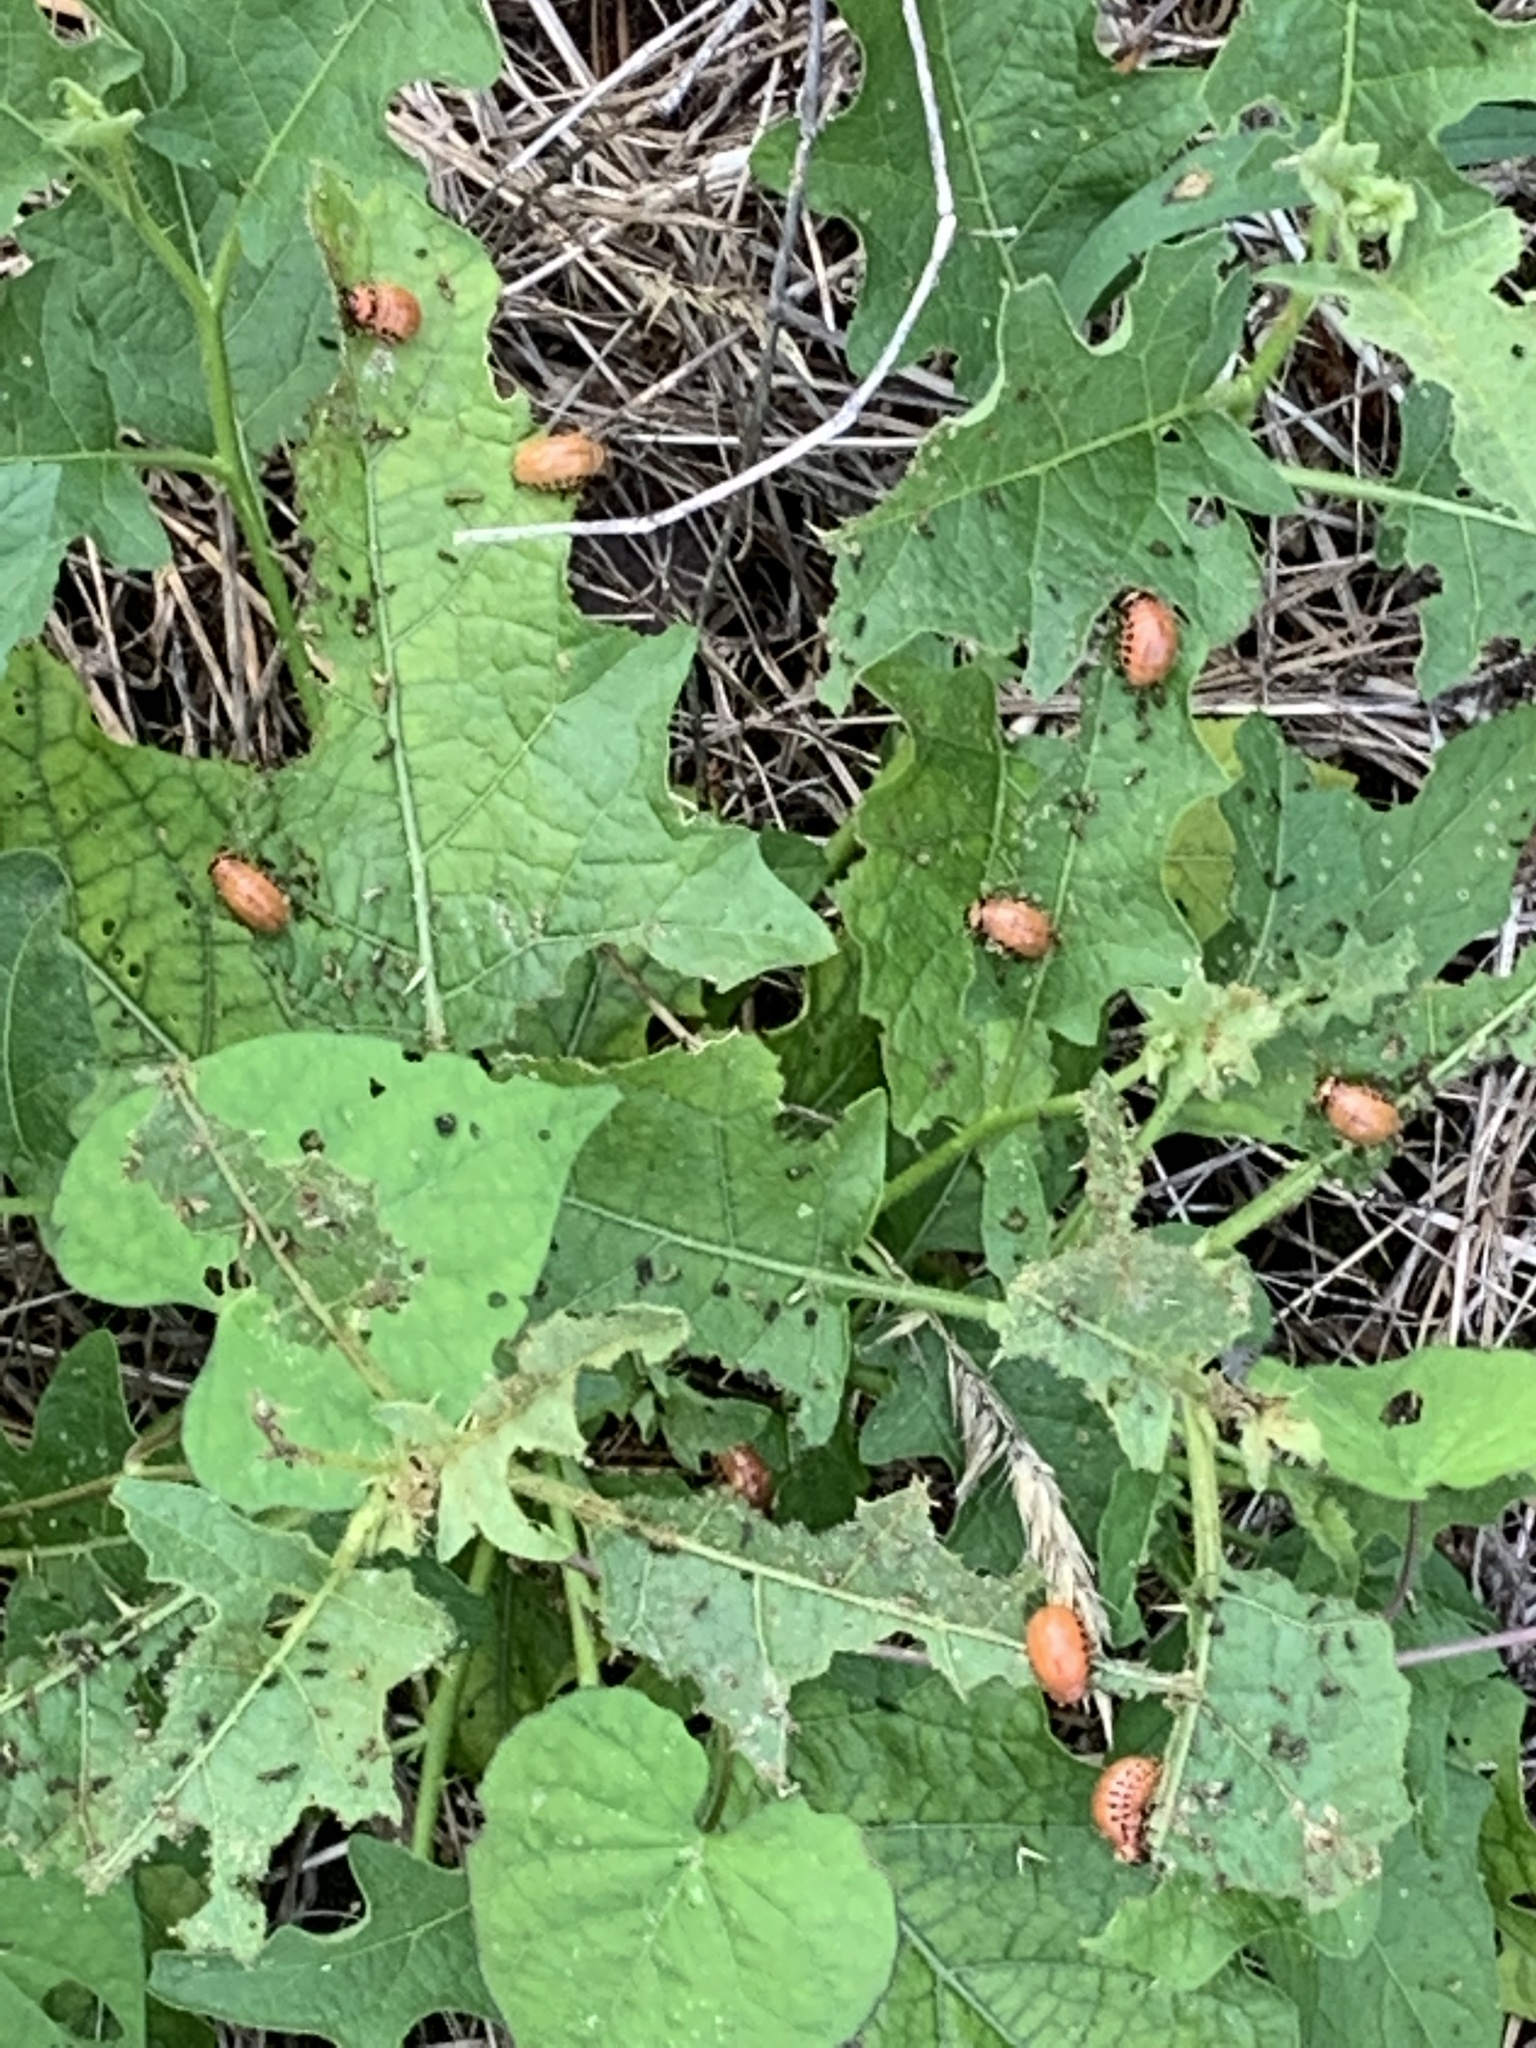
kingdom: Animalia
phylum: Arthropoda
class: Insecta
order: Coleoptera
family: Chrysomelidae
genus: Leptinotarsa
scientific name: Leptinotarsa decemlineata
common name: Colorado potato beetle
